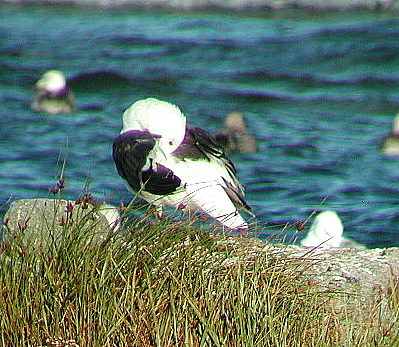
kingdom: Animalia
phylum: Chordata
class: Aves
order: Charadriiformes
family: Laridae
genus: Larus
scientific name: Larus marinus
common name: Great black-backed gull
